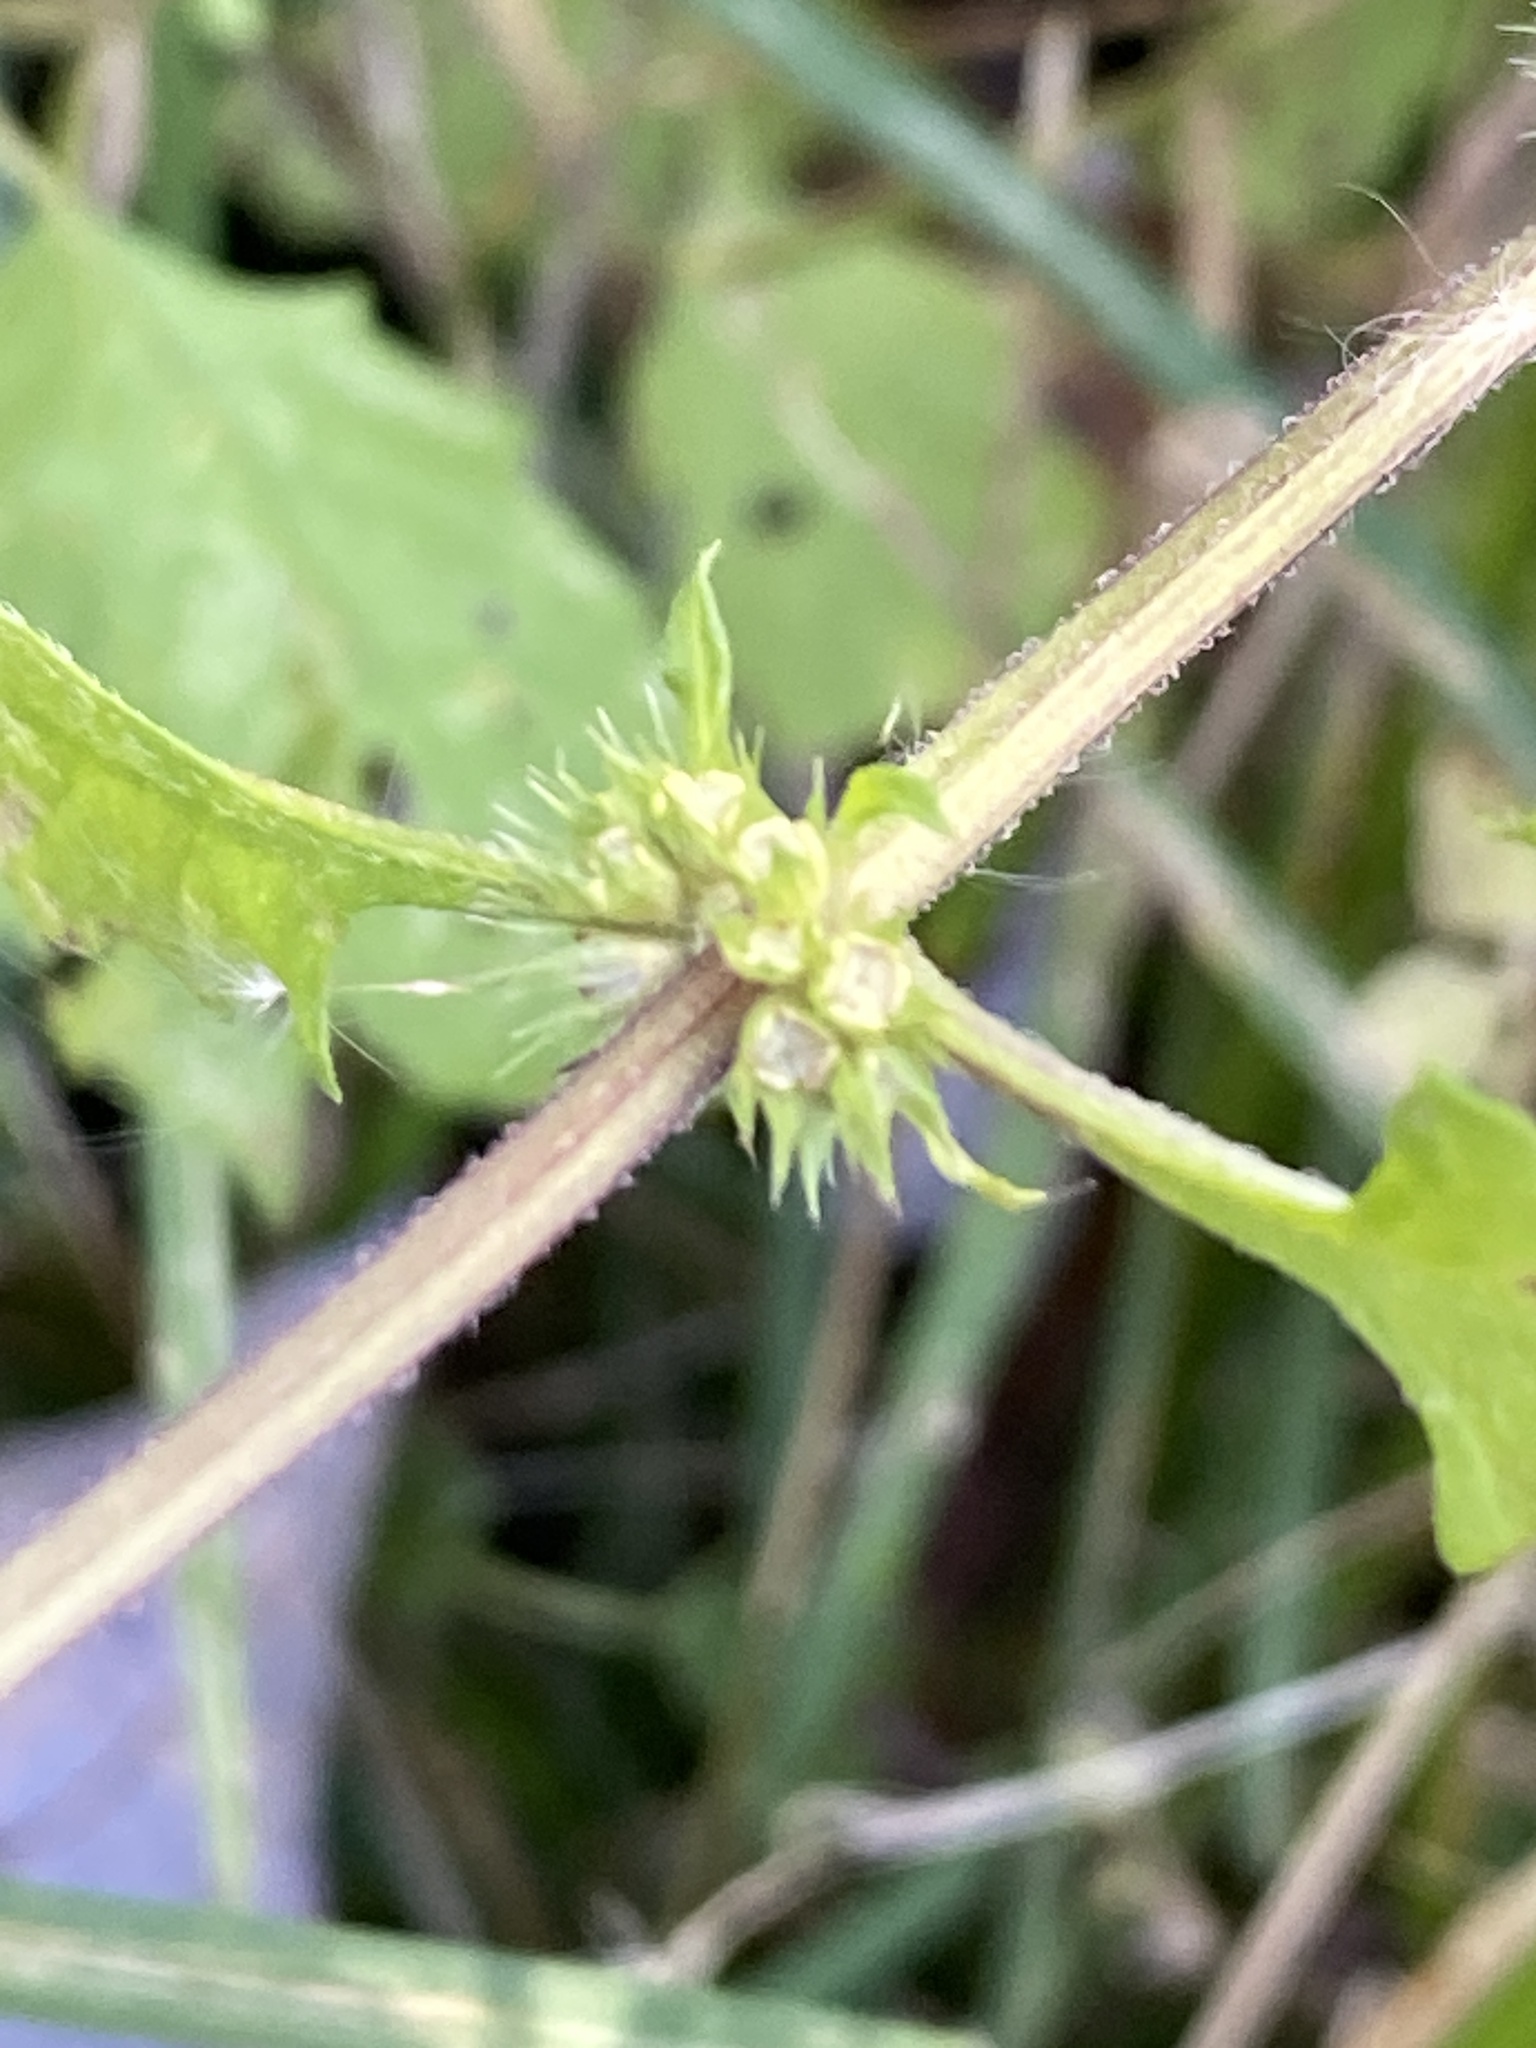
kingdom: Plantae
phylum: Tracheophyta
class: Magnoliopsida
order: Lamiales
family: Lamiaceae
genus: Lycopus
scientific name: Lycopus europaeus
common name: European bugleweed
